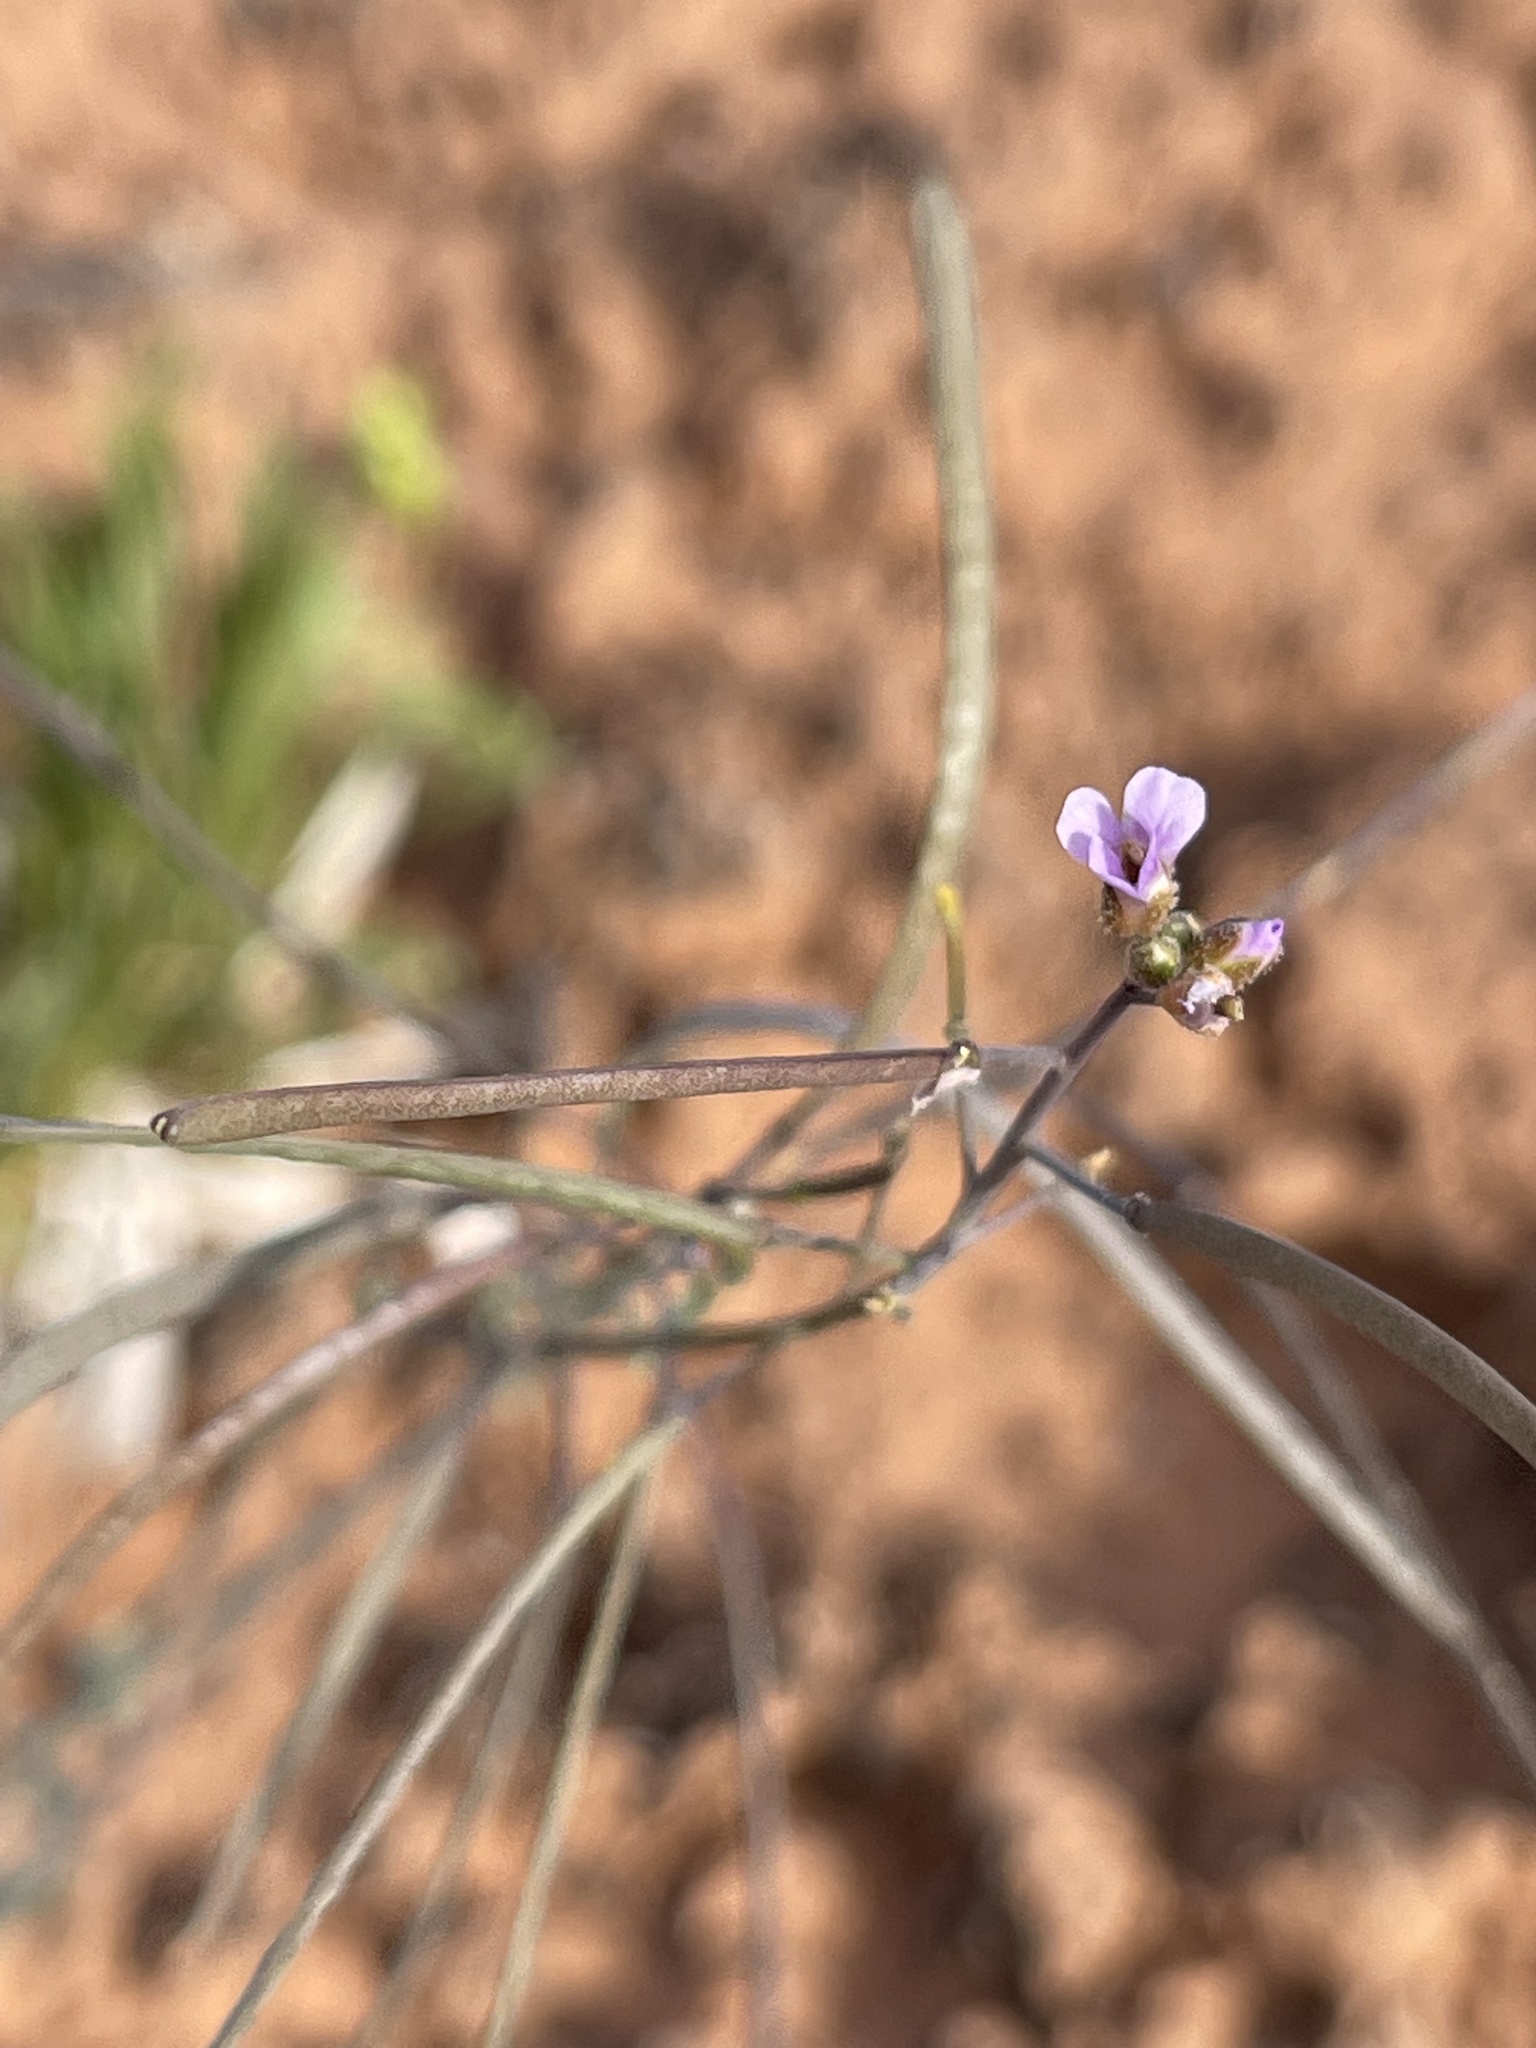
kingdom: Plantae
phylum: Tracheophyta
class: Magnoliopsida
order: Brassicales
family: Brassicaceae
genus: Boechera
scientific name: Boechera quadrangulensis
